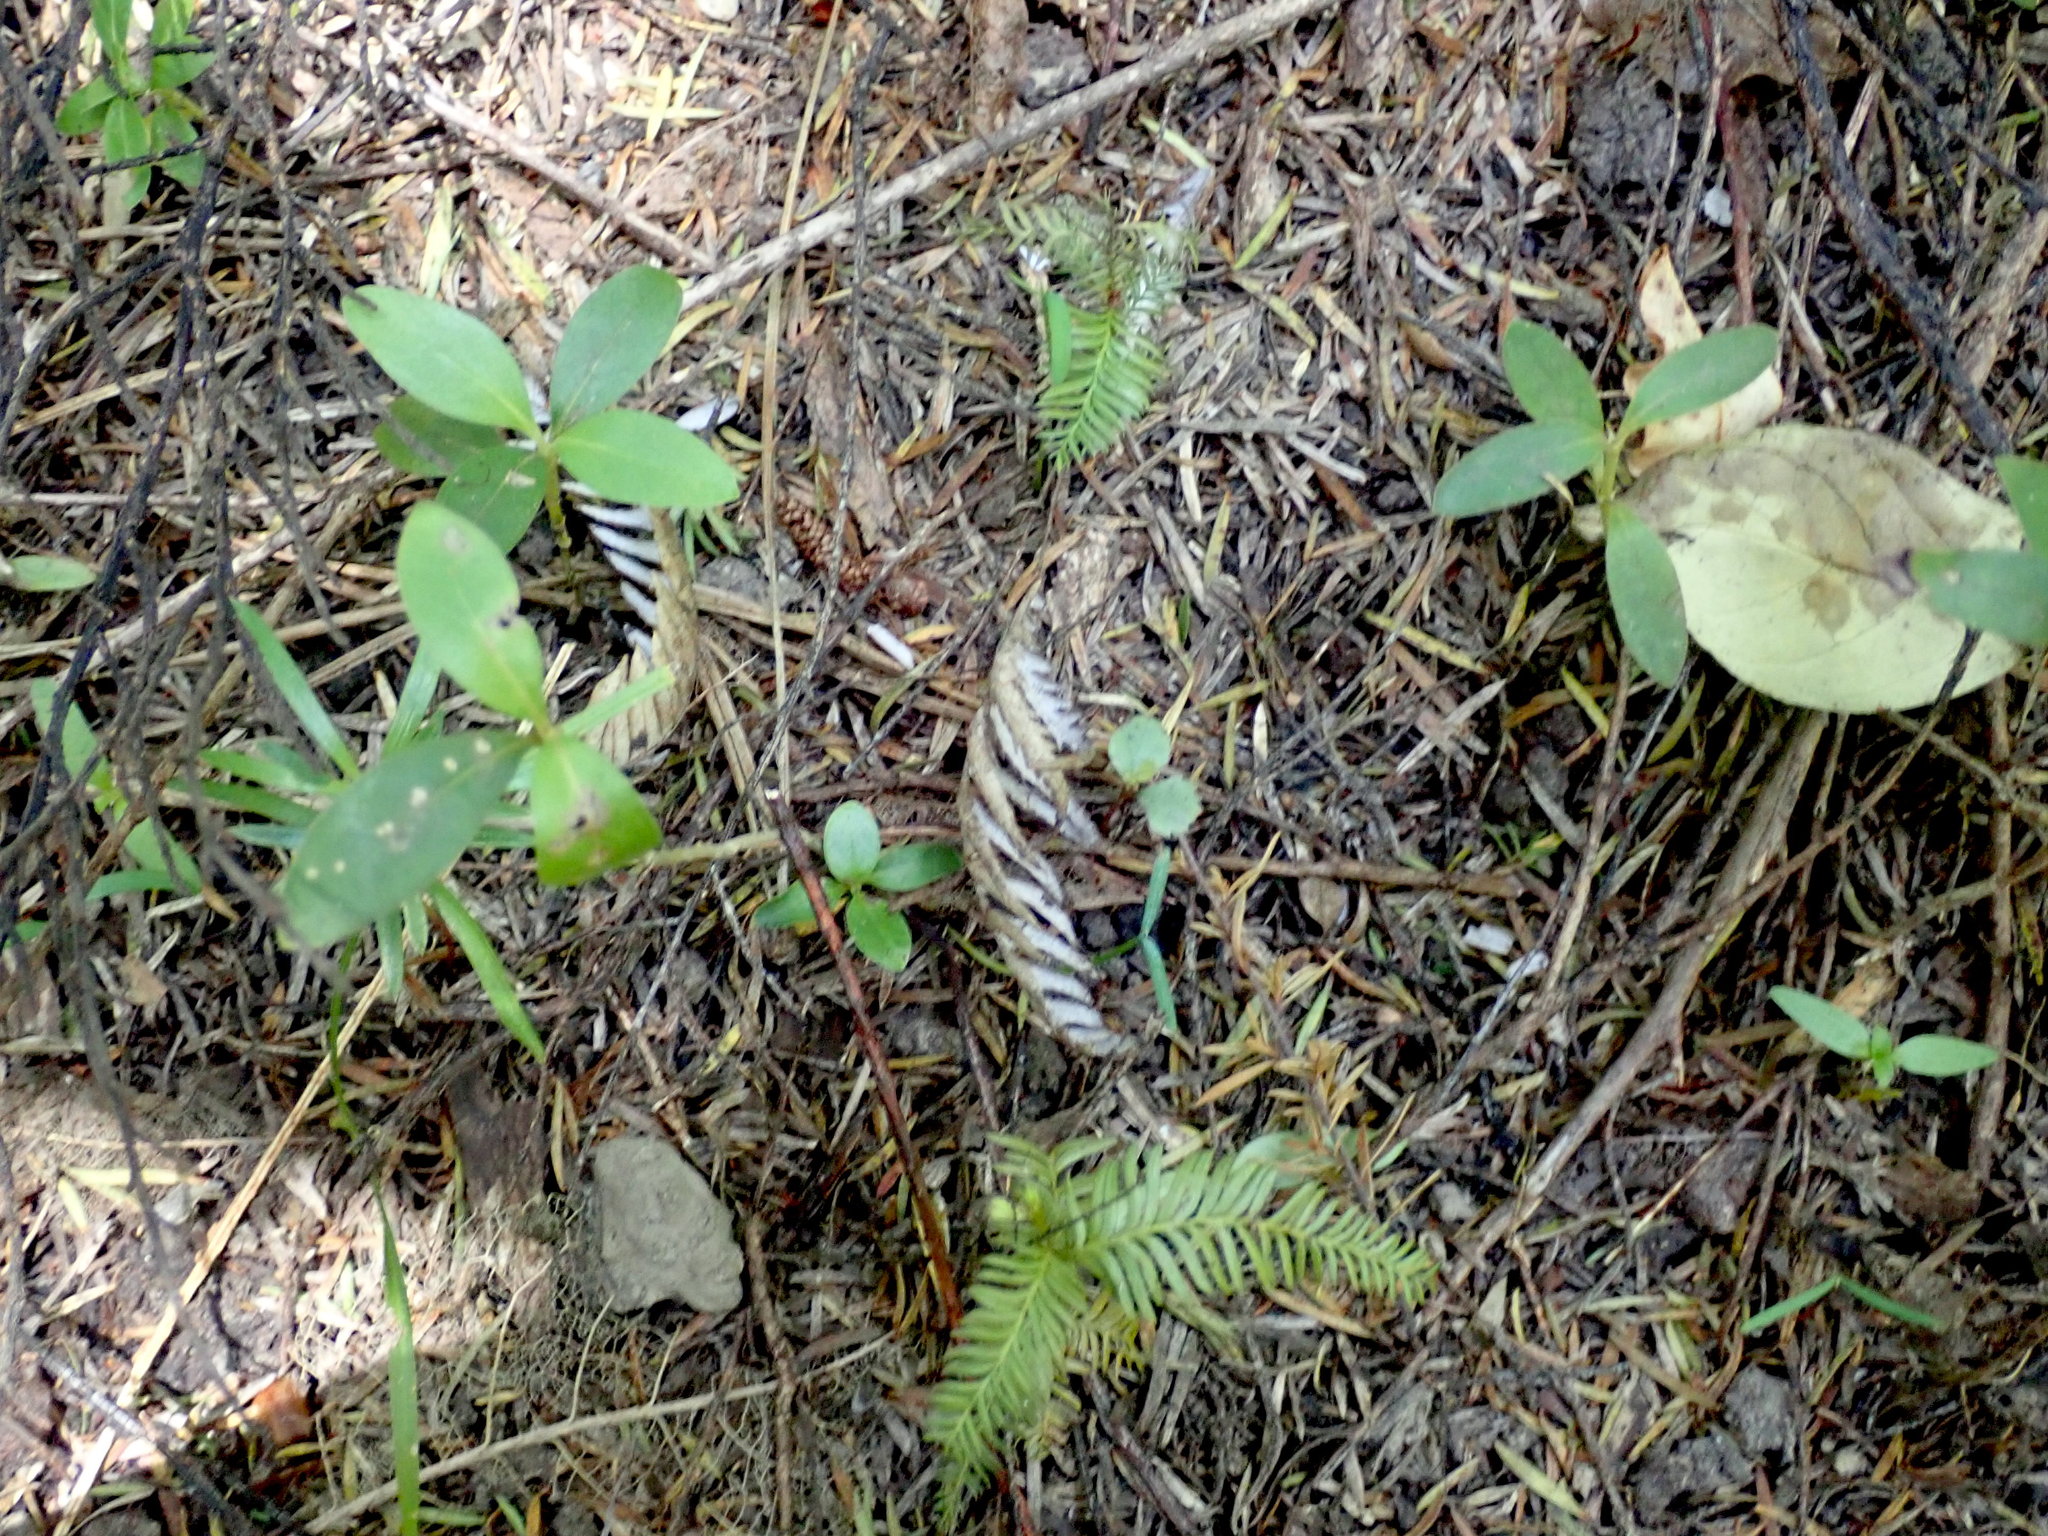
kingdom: Plantae
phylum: Tracheophyta
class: Pinopsida
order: Pinales
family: Podocarpaceae
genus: Dacrycarpus
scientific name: Dacrycarpus dacrydioides
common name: White pine
